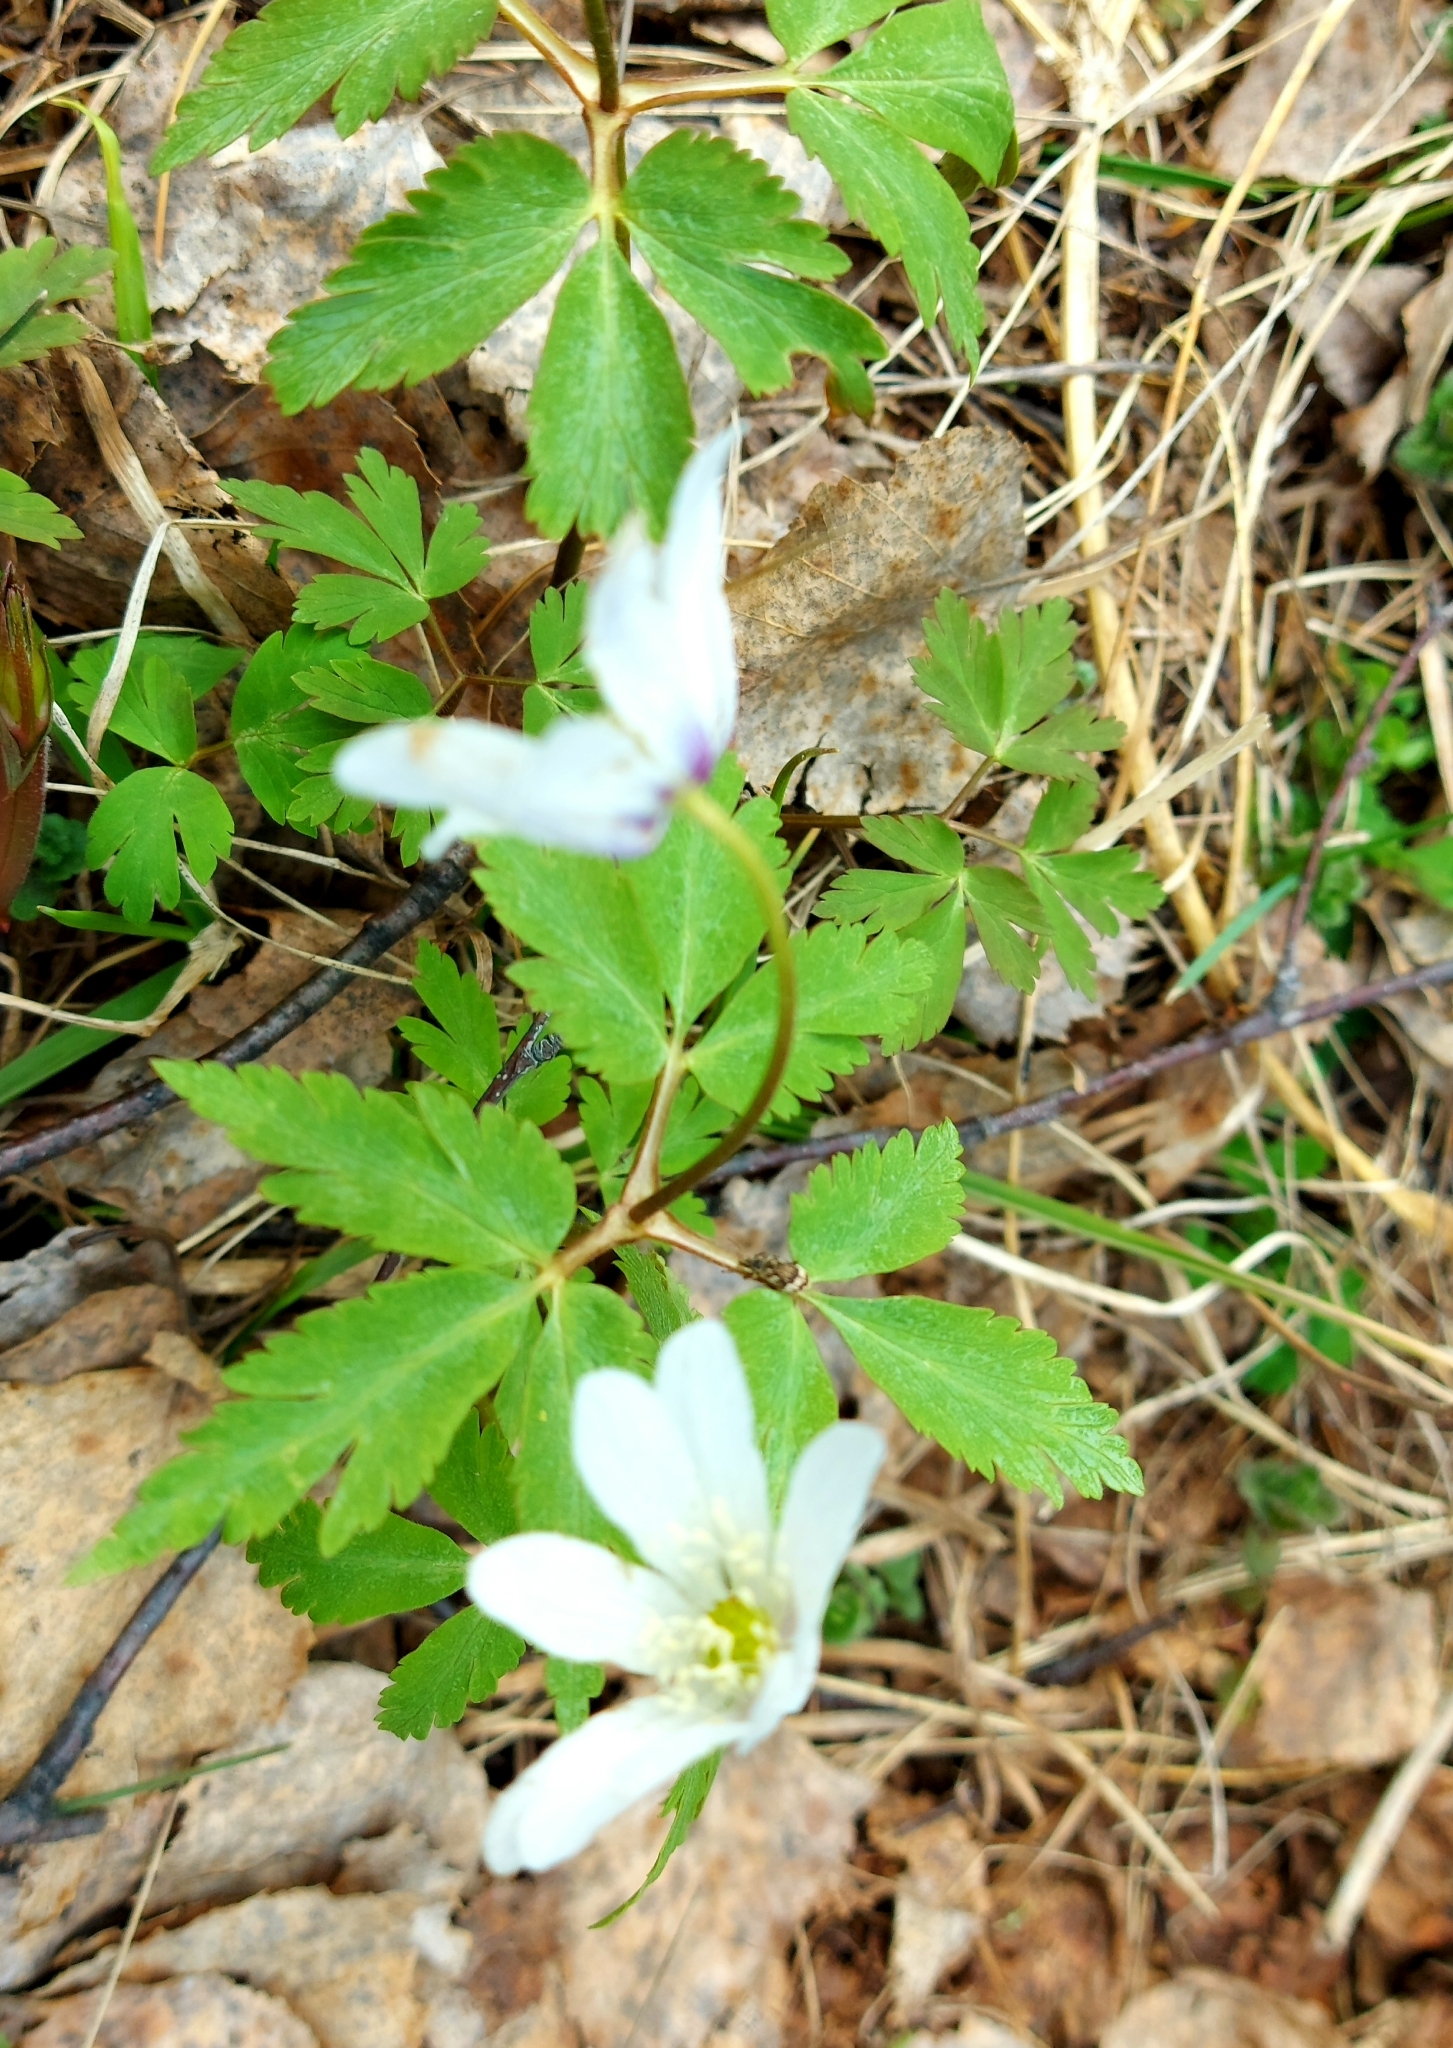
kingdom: Plantae
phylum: Tracheophyta
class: Magnoliopsida
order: Ranunculales
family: Ranunculaceae
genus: Anemone
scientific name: Anemone altaica
